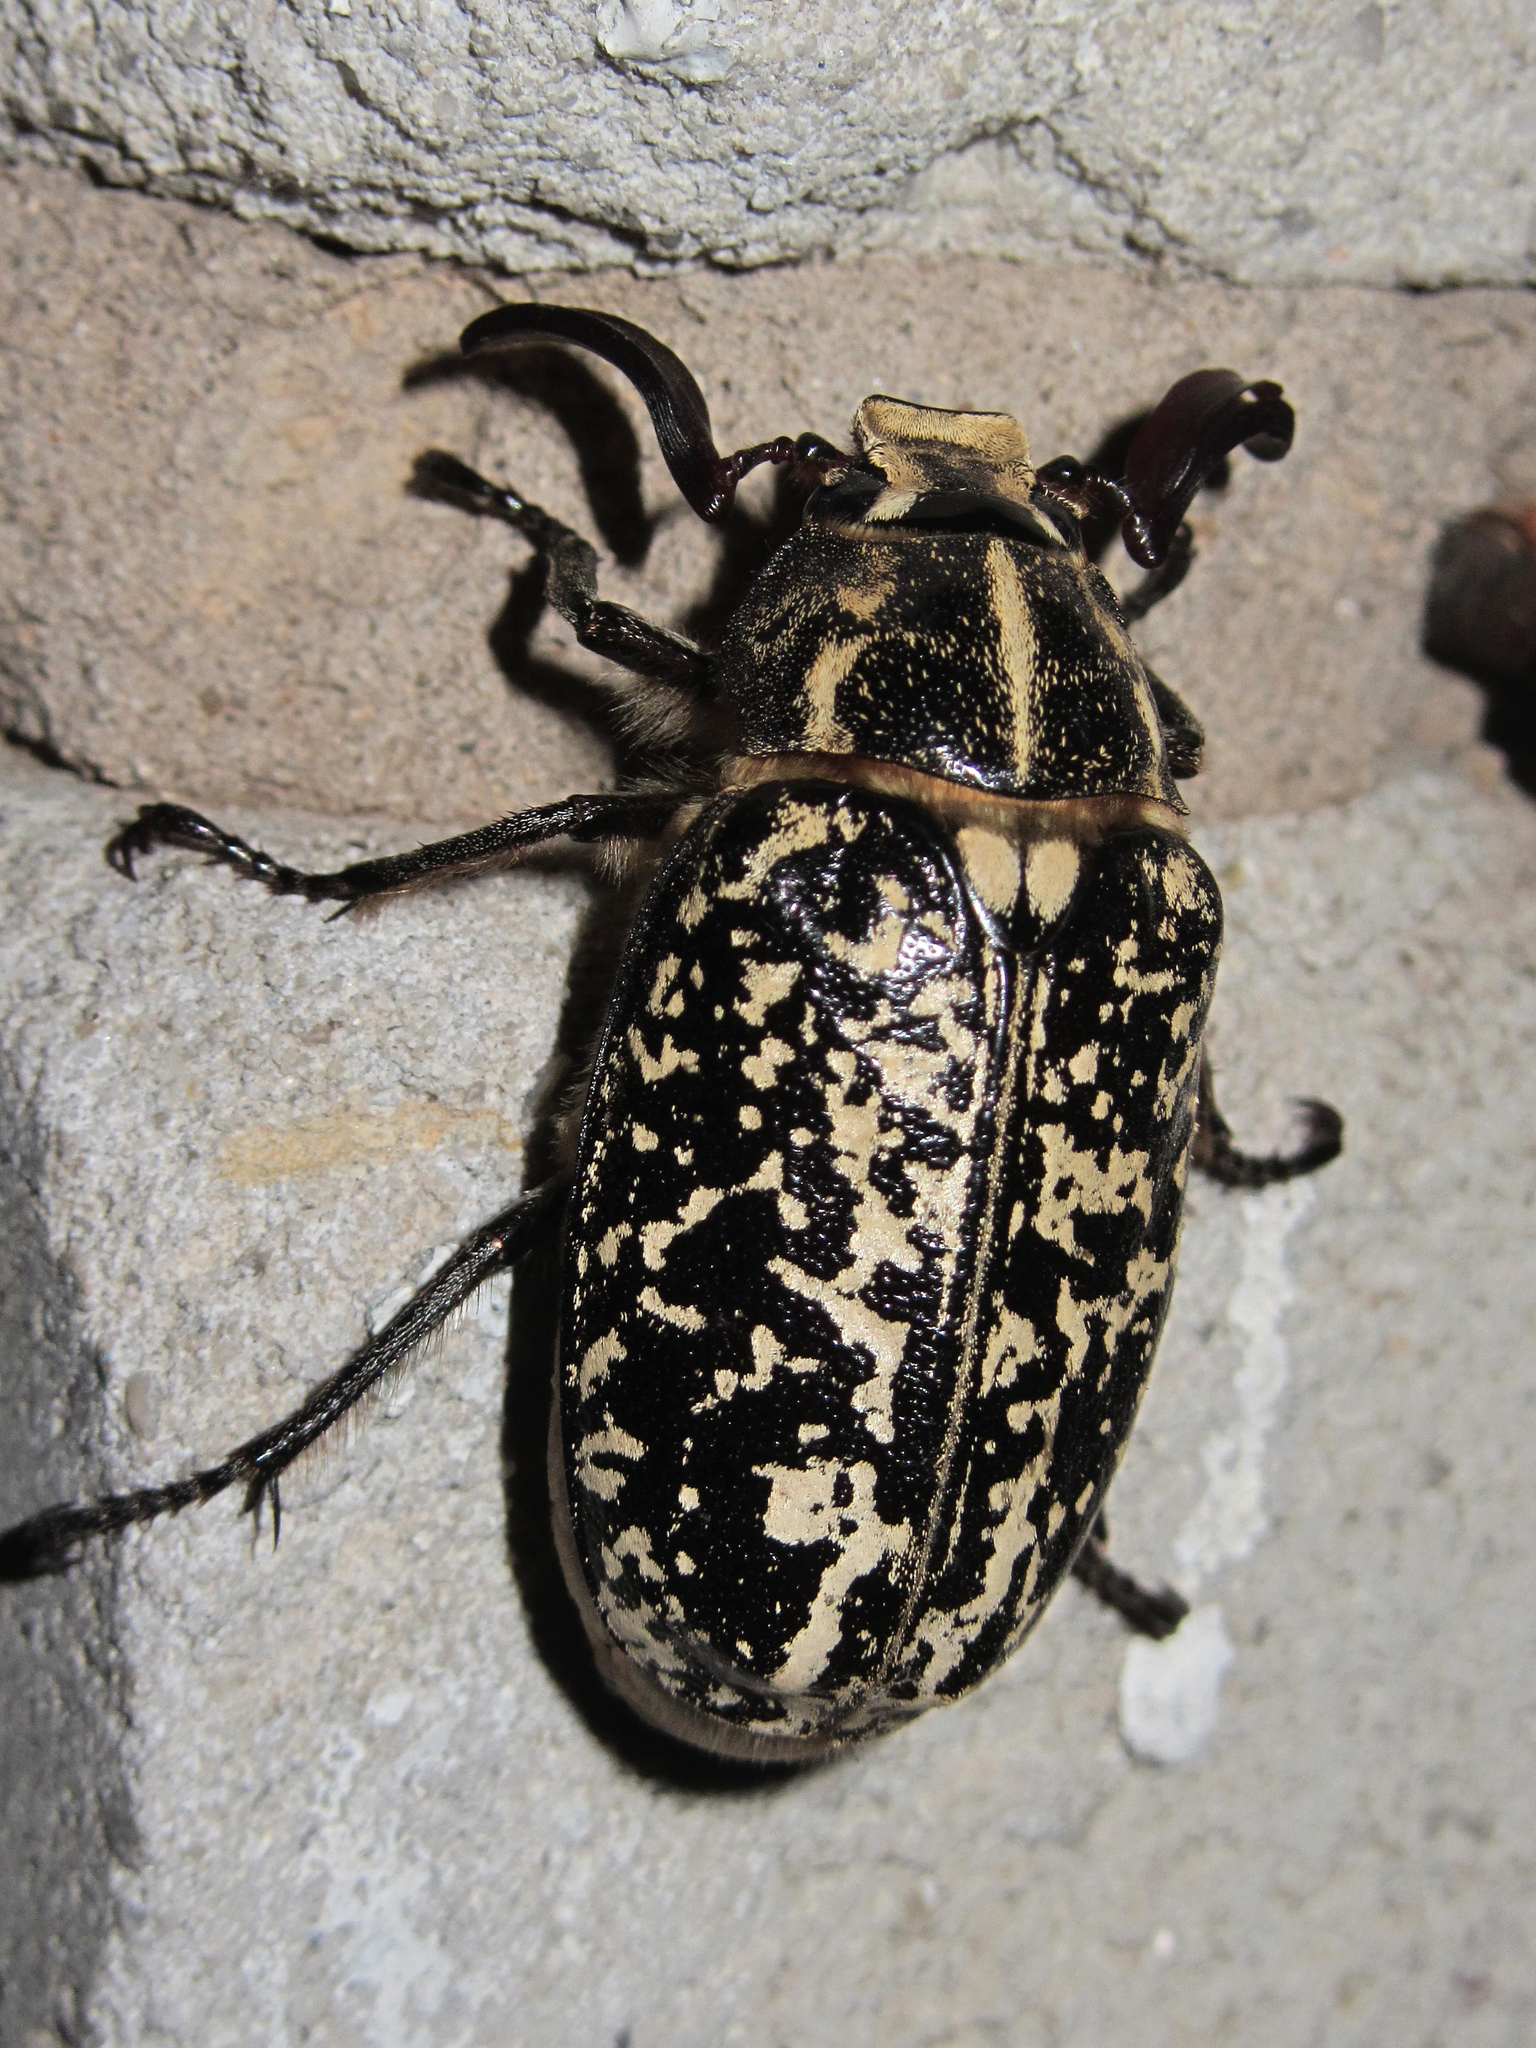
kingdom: Animalia
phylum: Arthropoda
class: Insecta
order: Coleoptera
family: Scarabaeidae
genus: Polyphylla
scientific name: Polyphylla fullo
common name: Pine chafer
